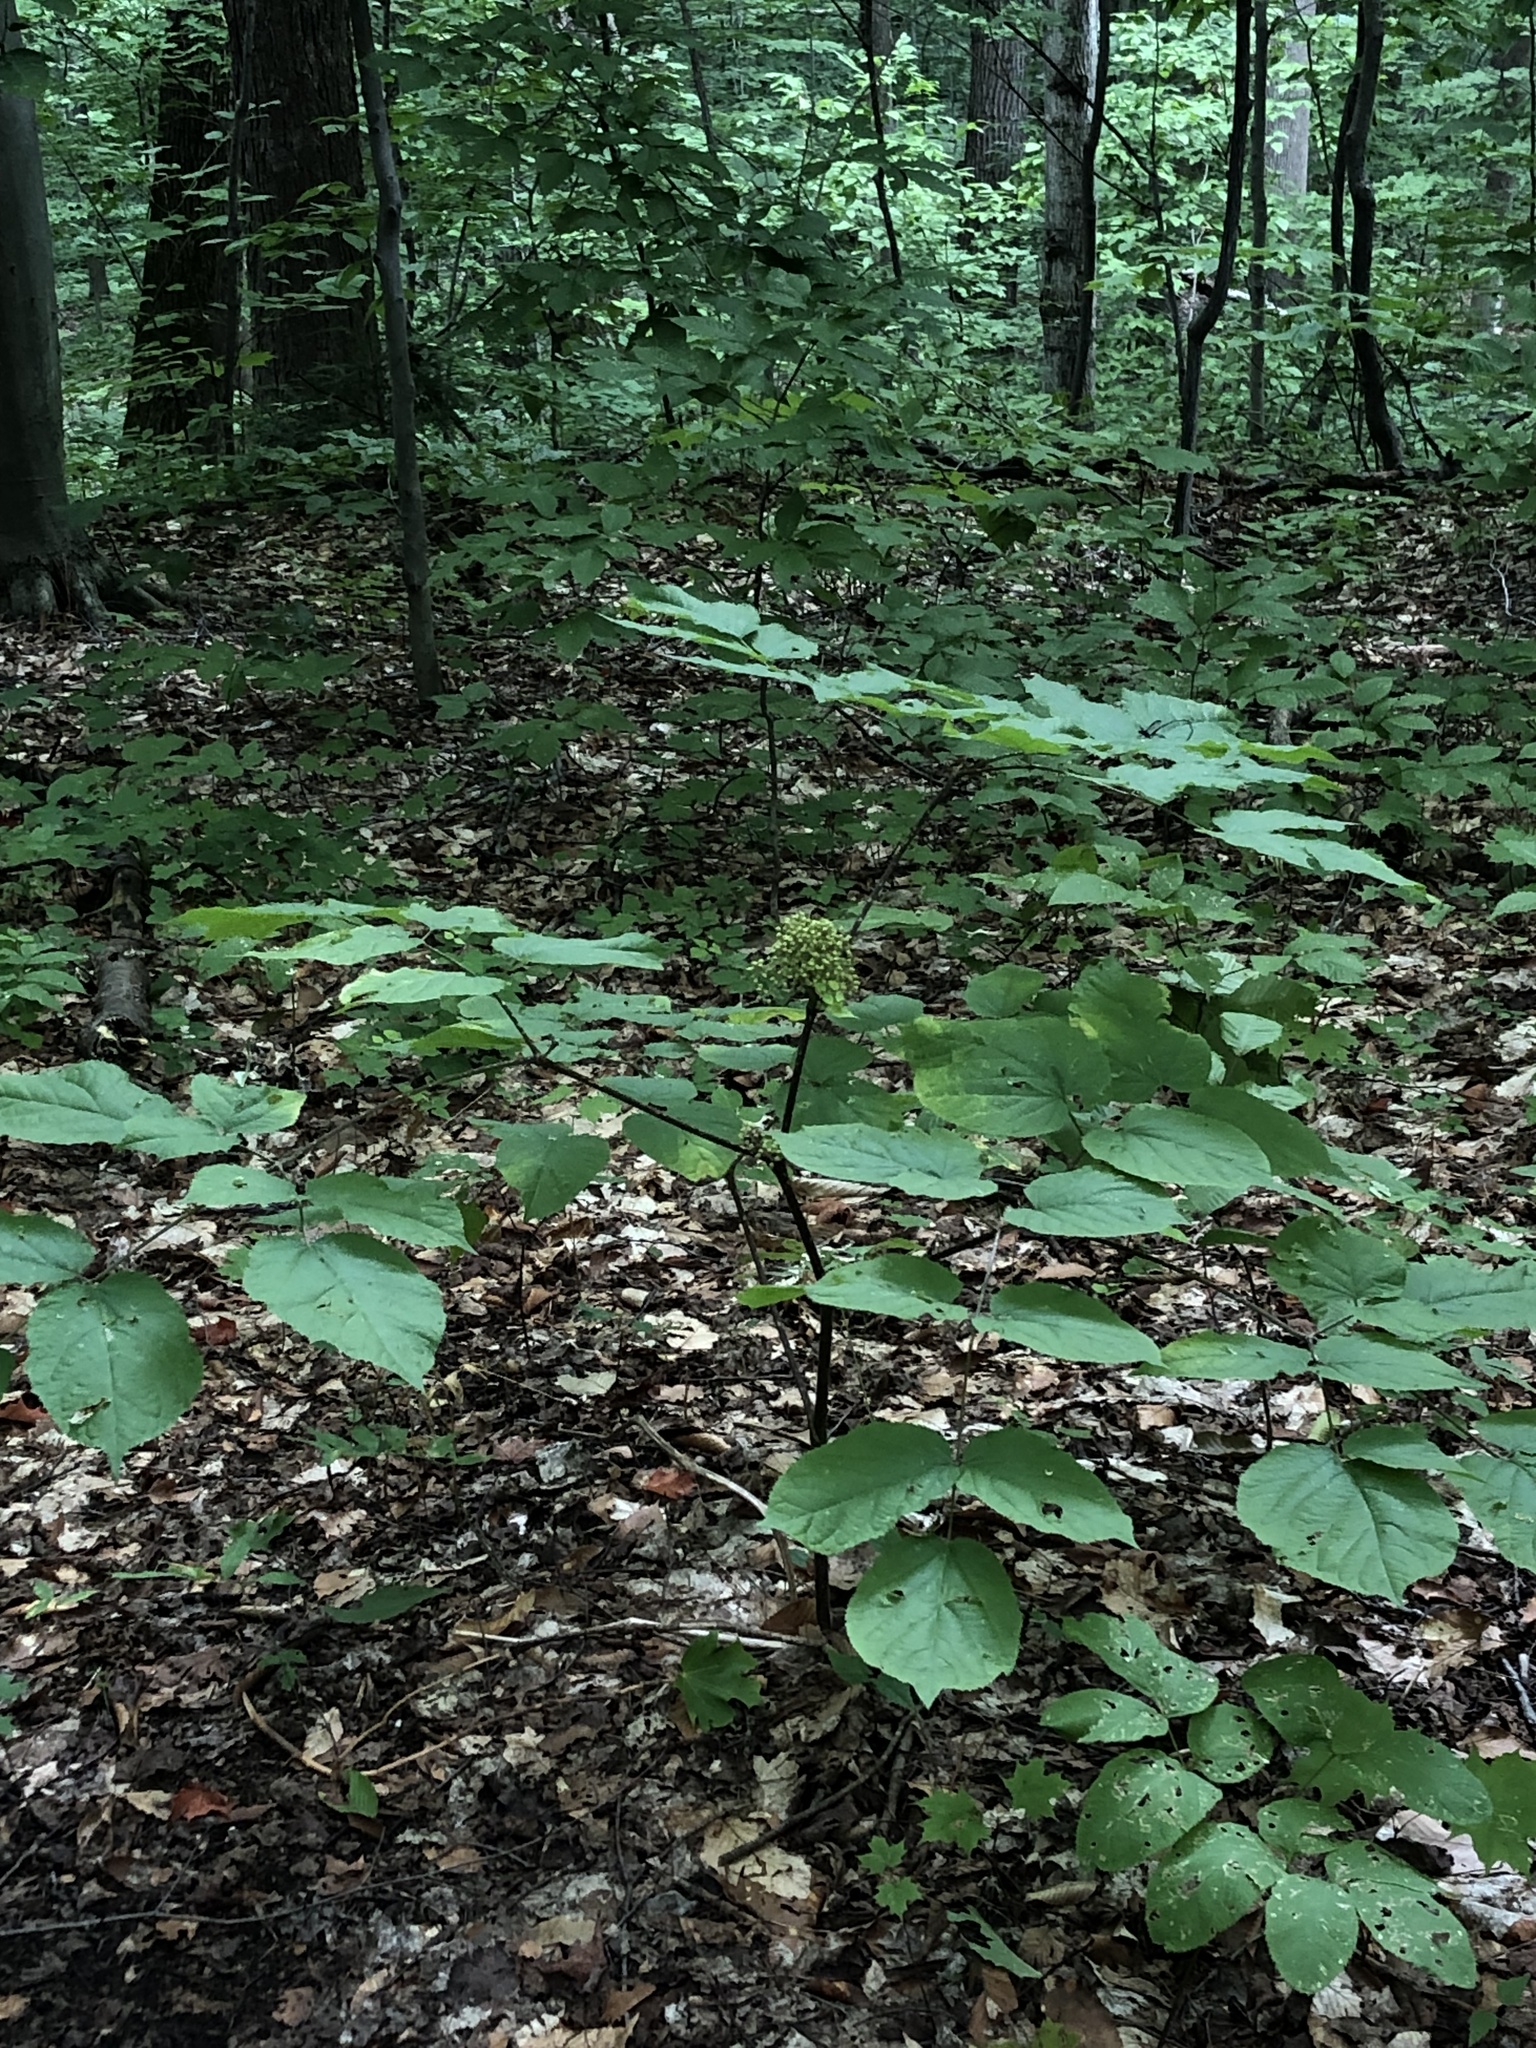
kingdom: Plantae
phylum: Tracheophyta
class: Magnoliopsida
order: Apiales
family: Araliaceae
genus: Aralia
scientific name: Aralia racemosa
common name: American-spikenard
